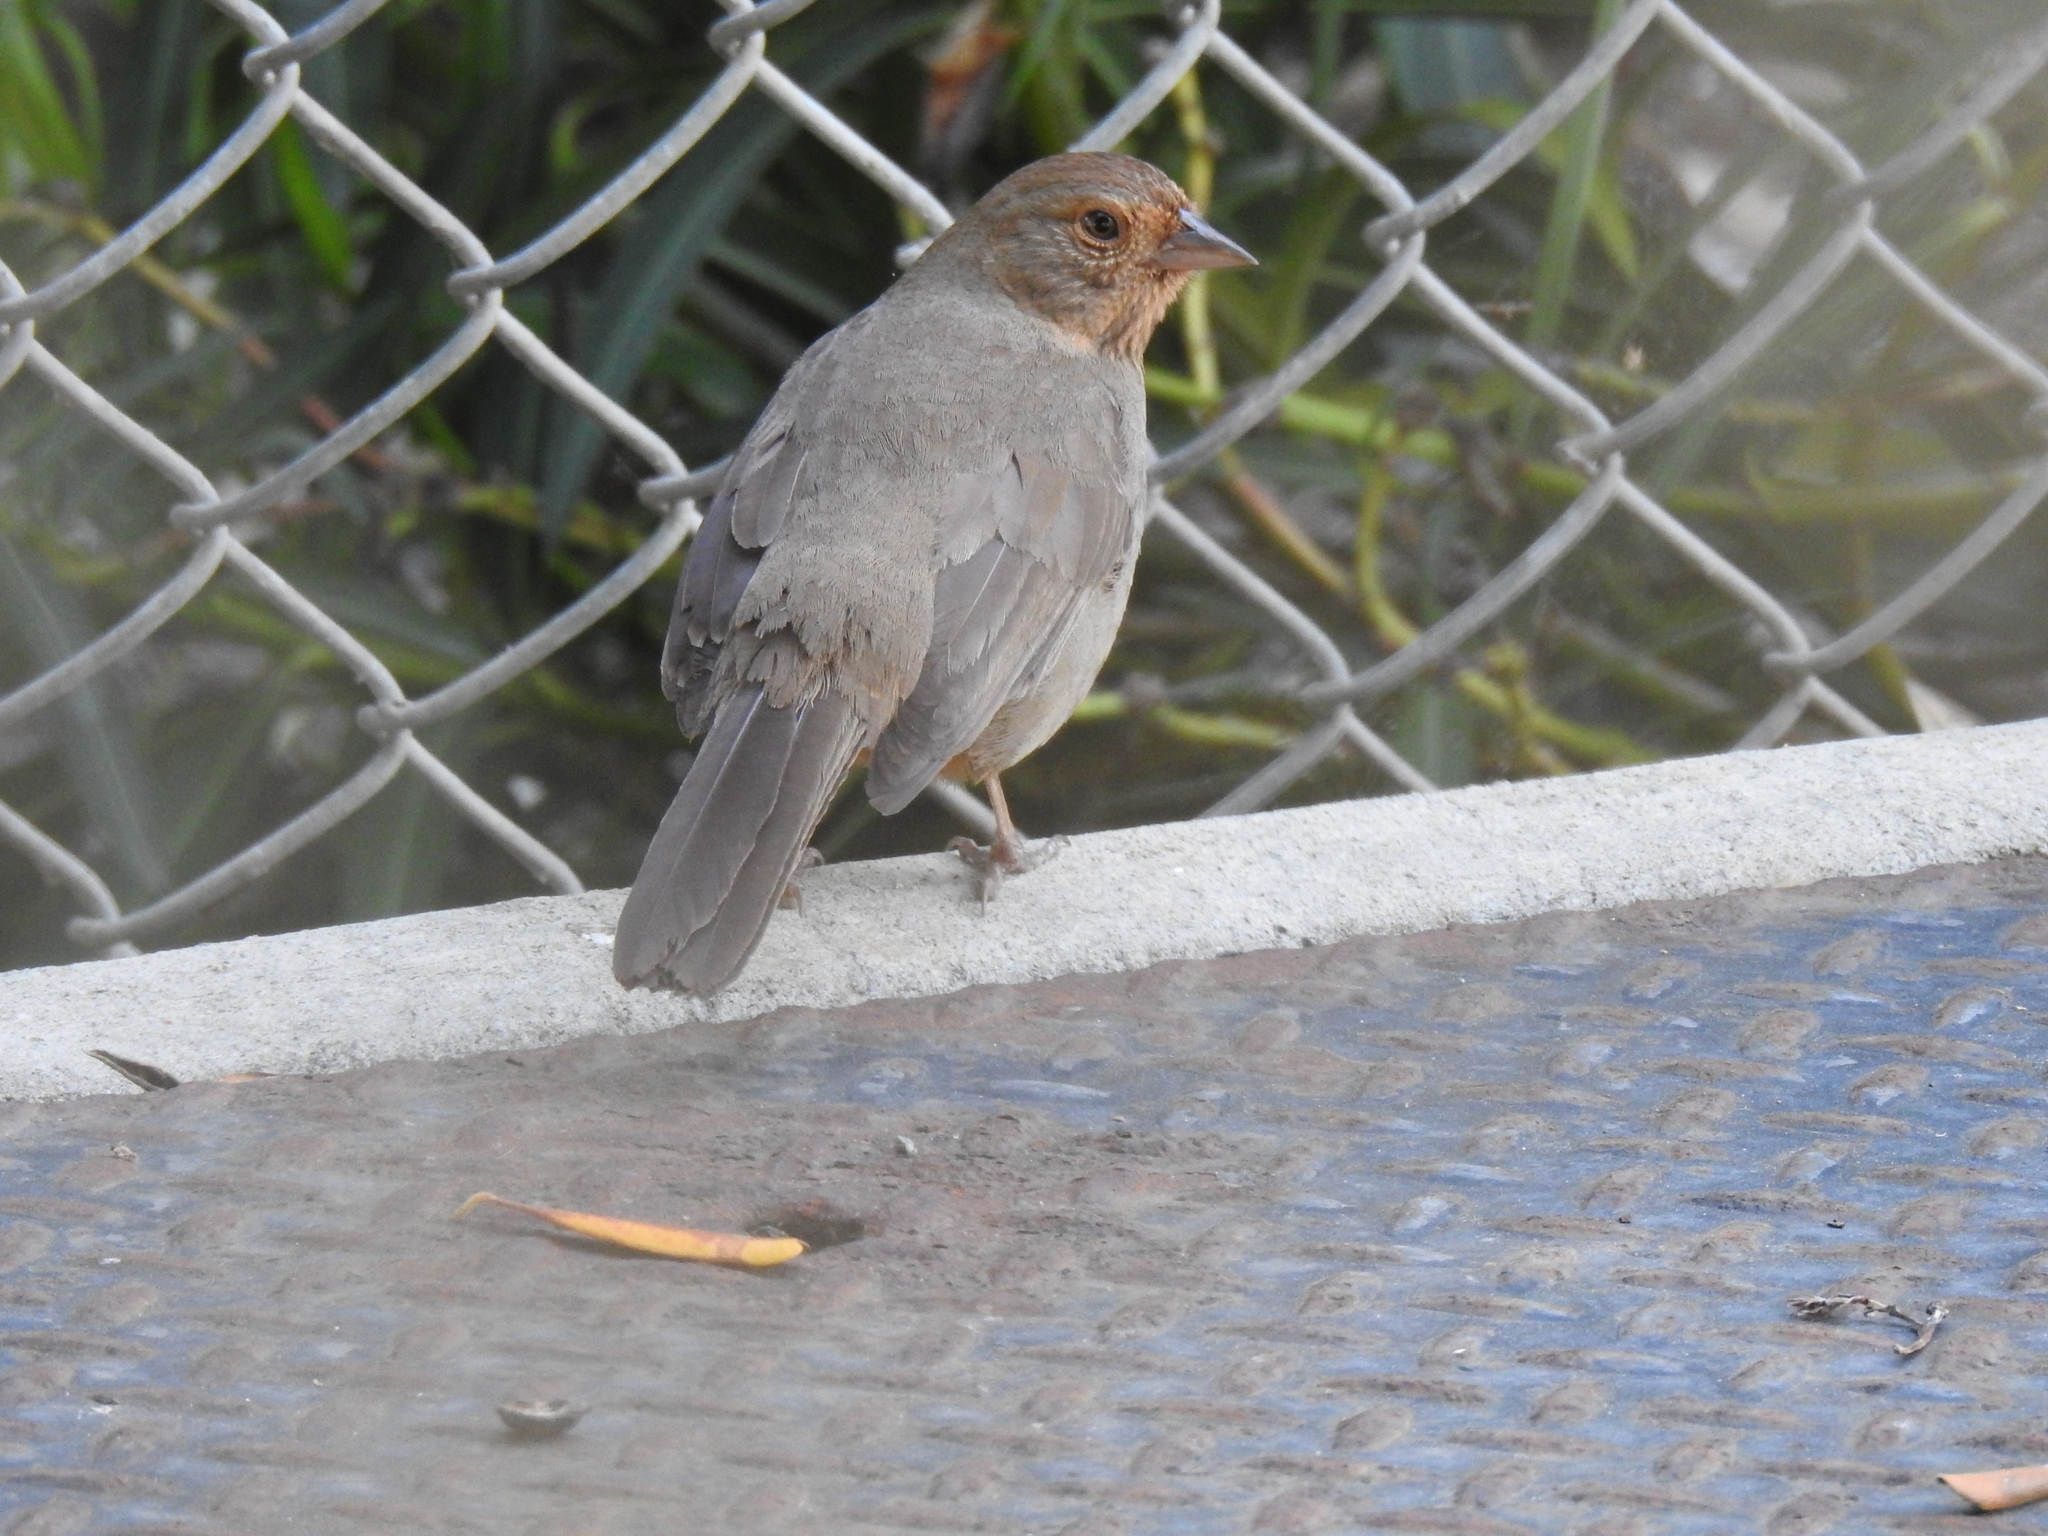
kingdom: Animalia
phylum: Chordata
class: Aves
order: Passeriformes
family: Passerellidae
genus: Melozone
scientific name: Melozone crissalis
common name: California towhee
